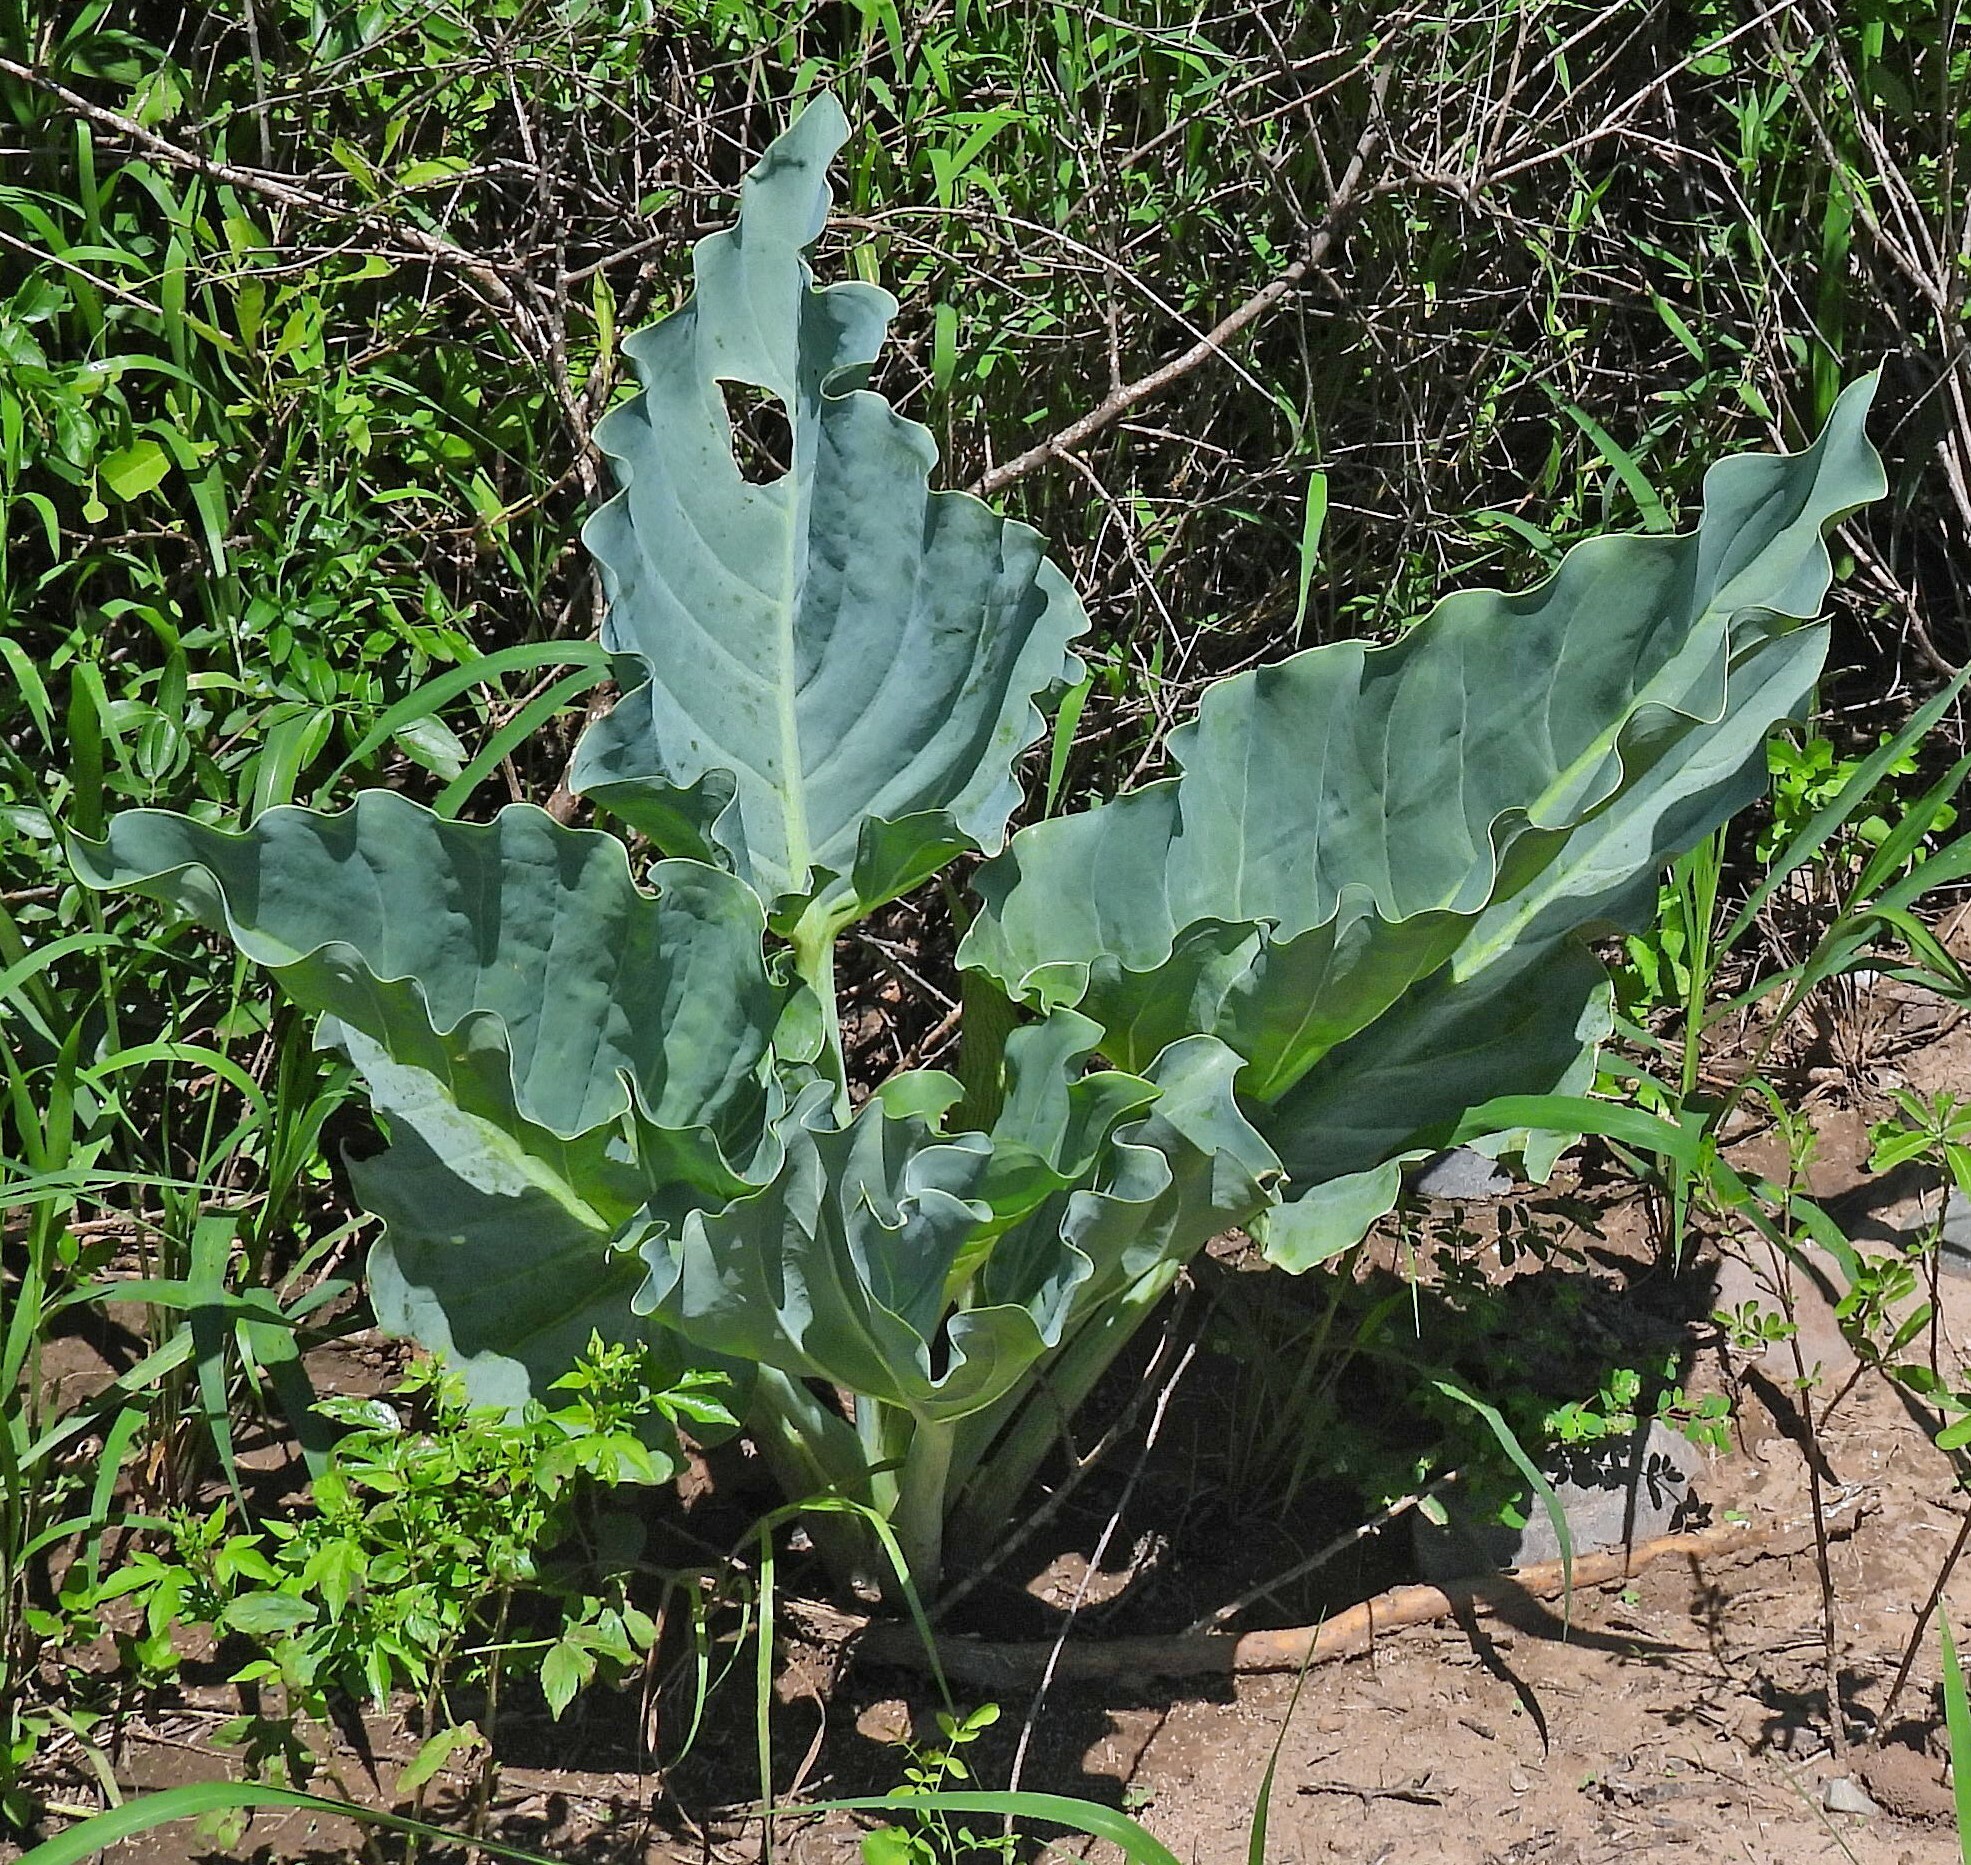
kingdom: Plantae
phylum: Tracheophyta
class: Liliopsida
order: Alismatales
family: Araceae
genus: Synandrospadix
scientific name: Synandrospadix vermitoxicus
